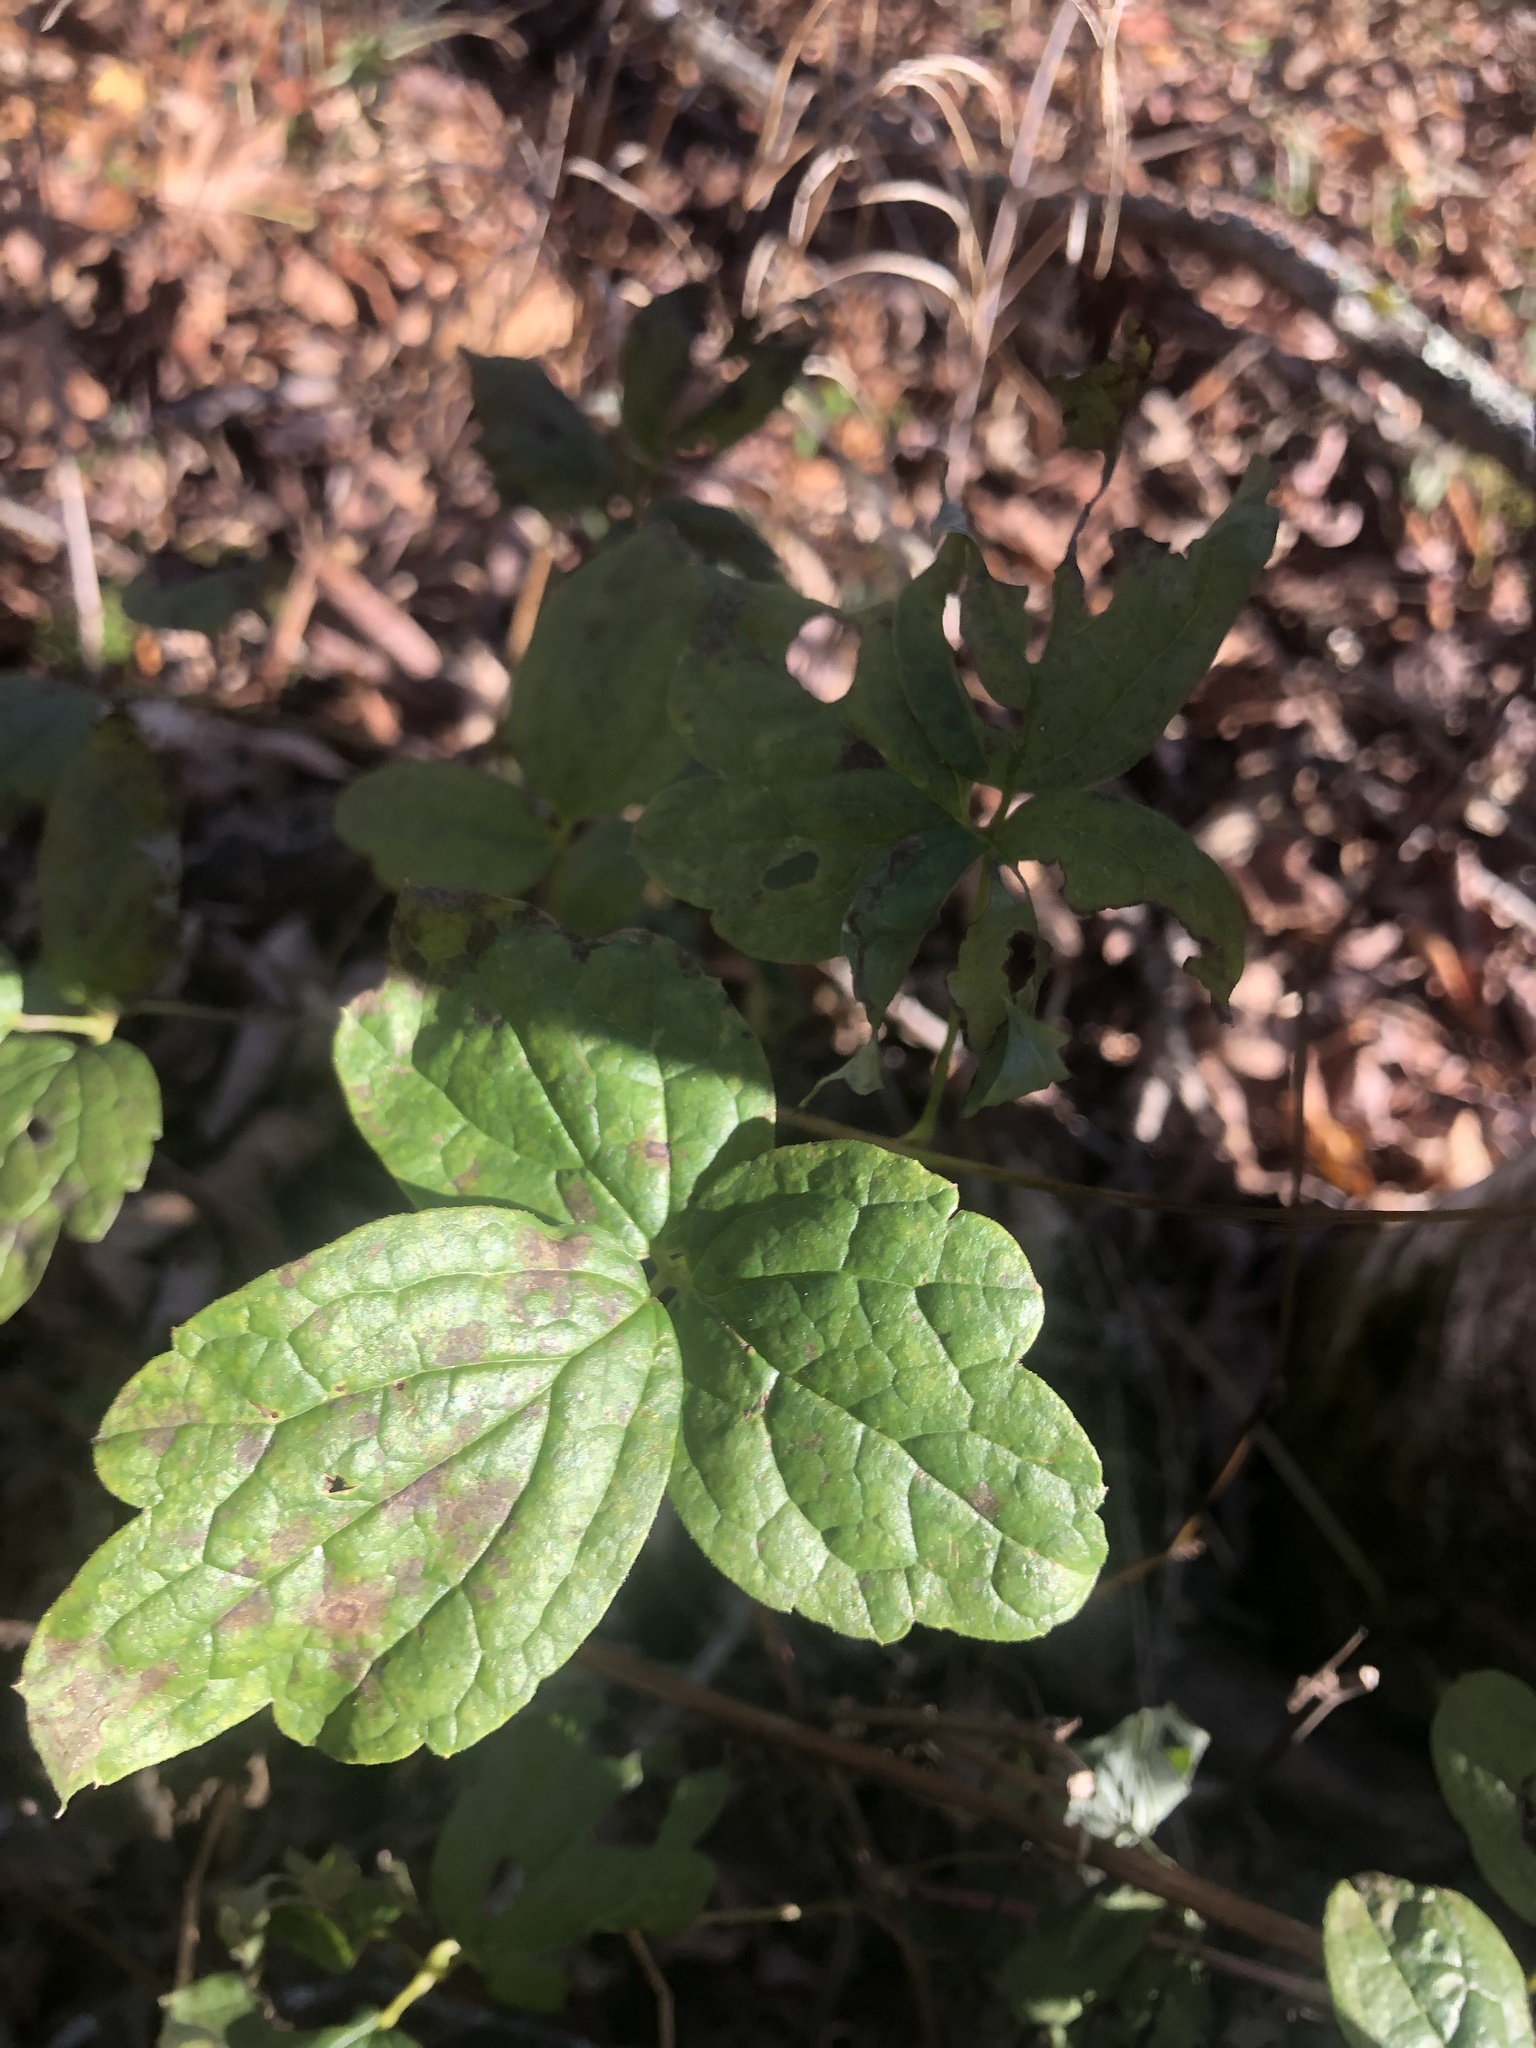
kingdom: Plantae
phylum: Tracheophyta
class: Magnoliopsida
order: Ranunculales
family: Ranunculaceae
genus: Clematis
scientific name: Clematis occidentalis
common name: Purple clematis
